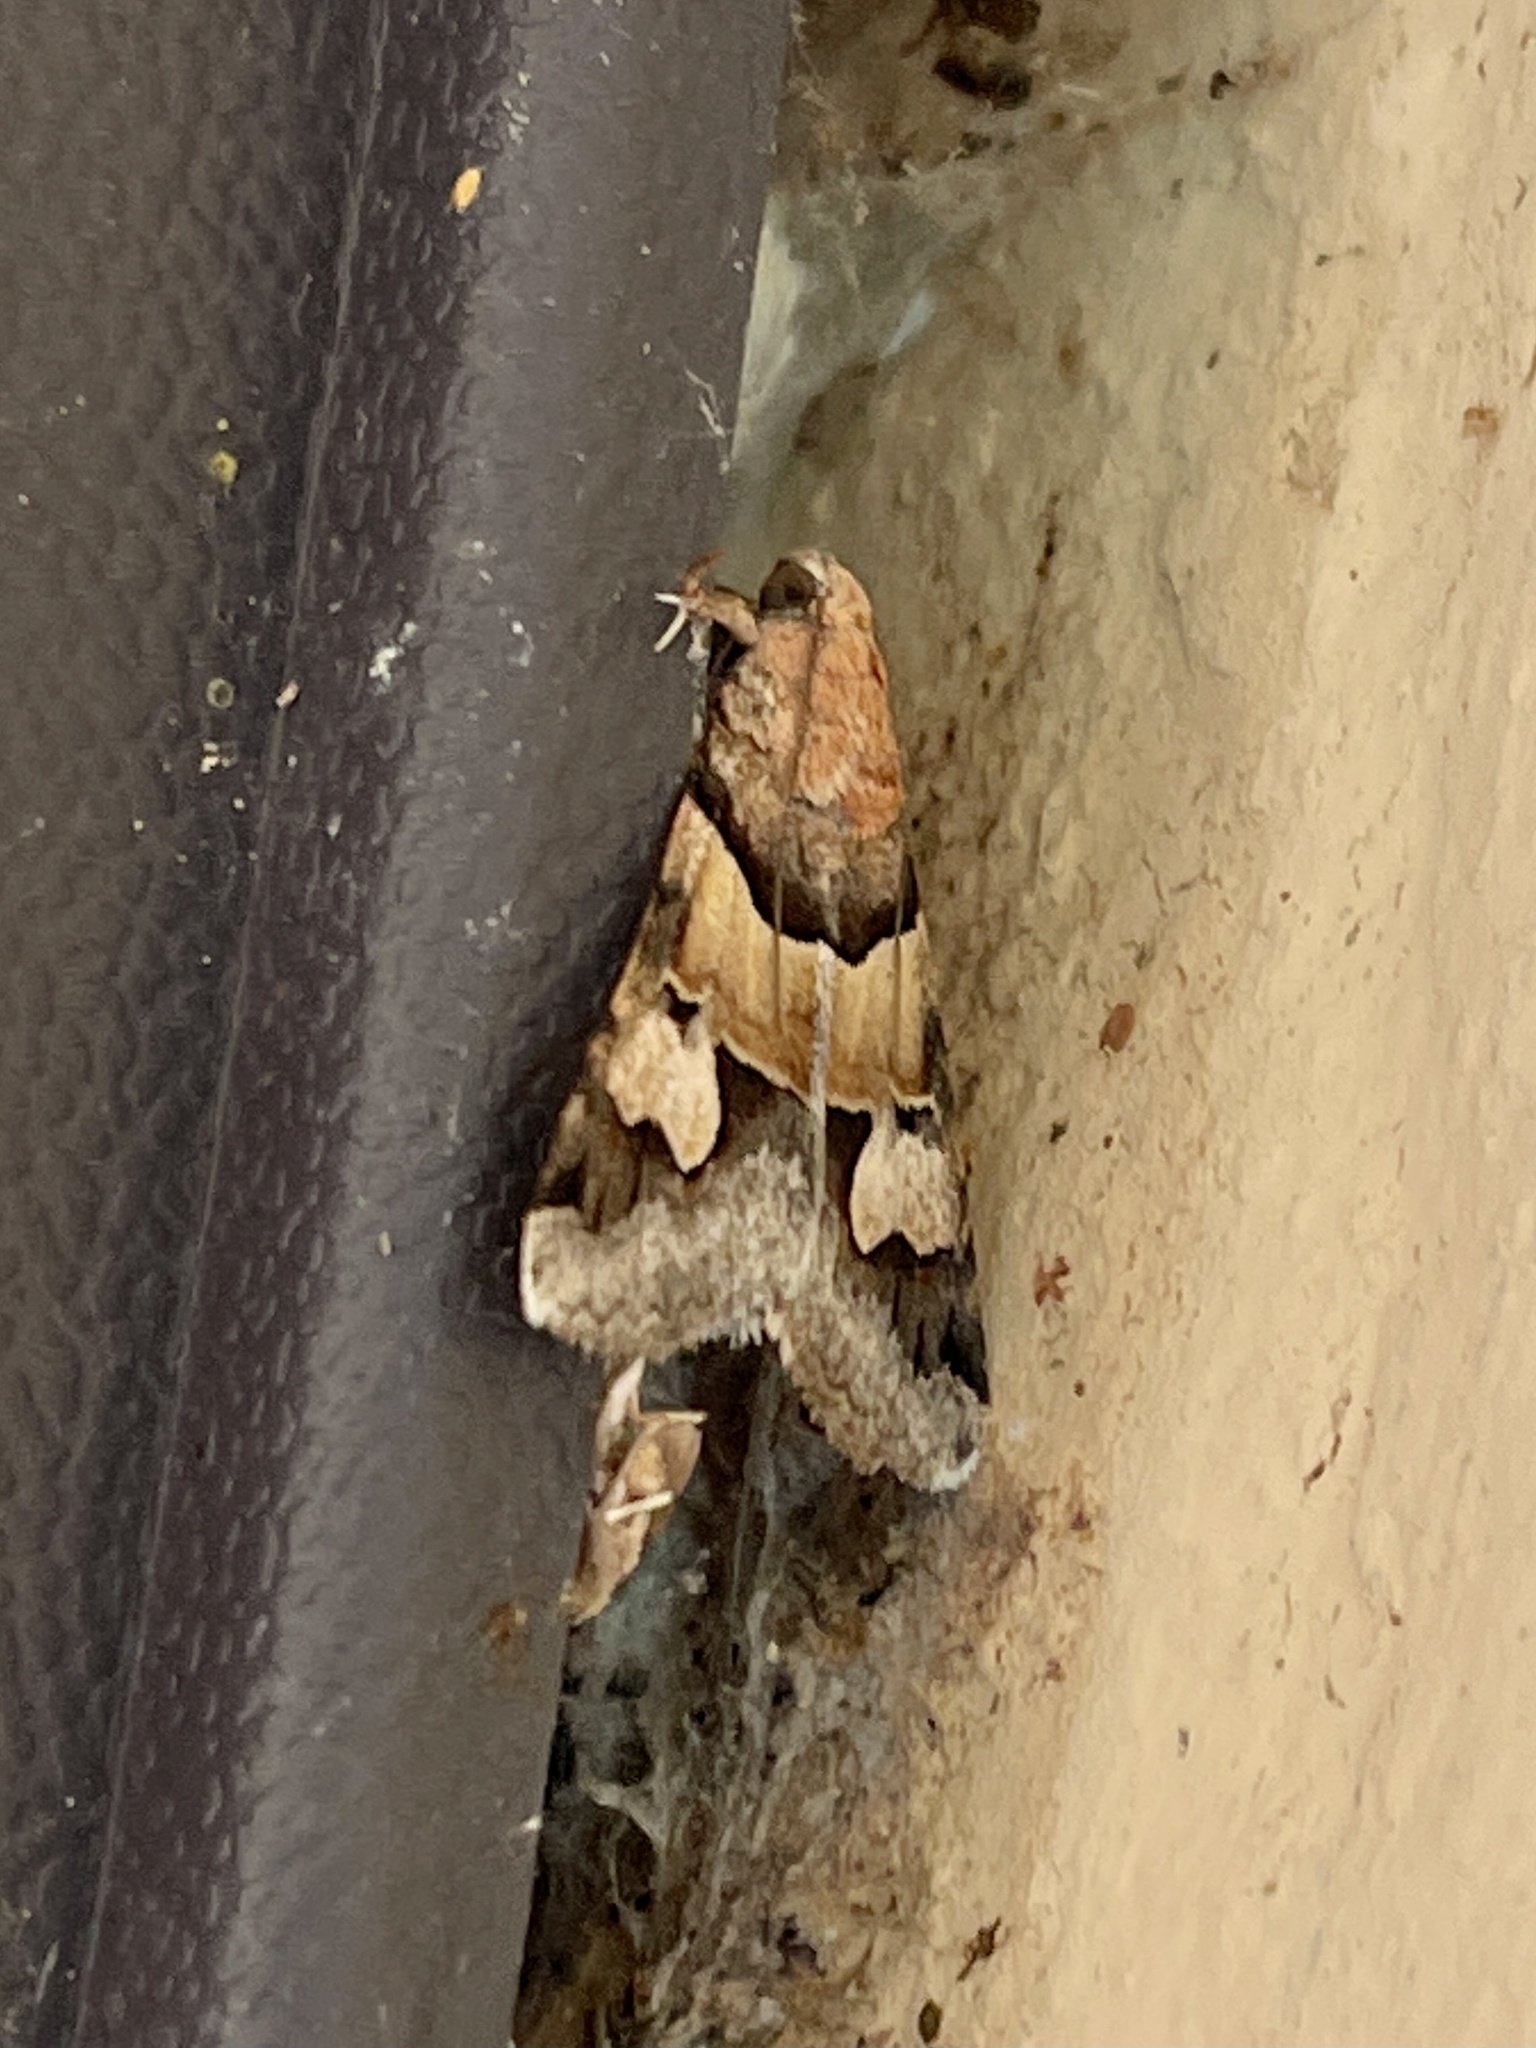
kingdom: Animalia
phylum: Arthropoda
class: Insecta
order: Lepidoptera
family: Erebidae
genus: Drasteria
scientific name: Drasteria pallescens
